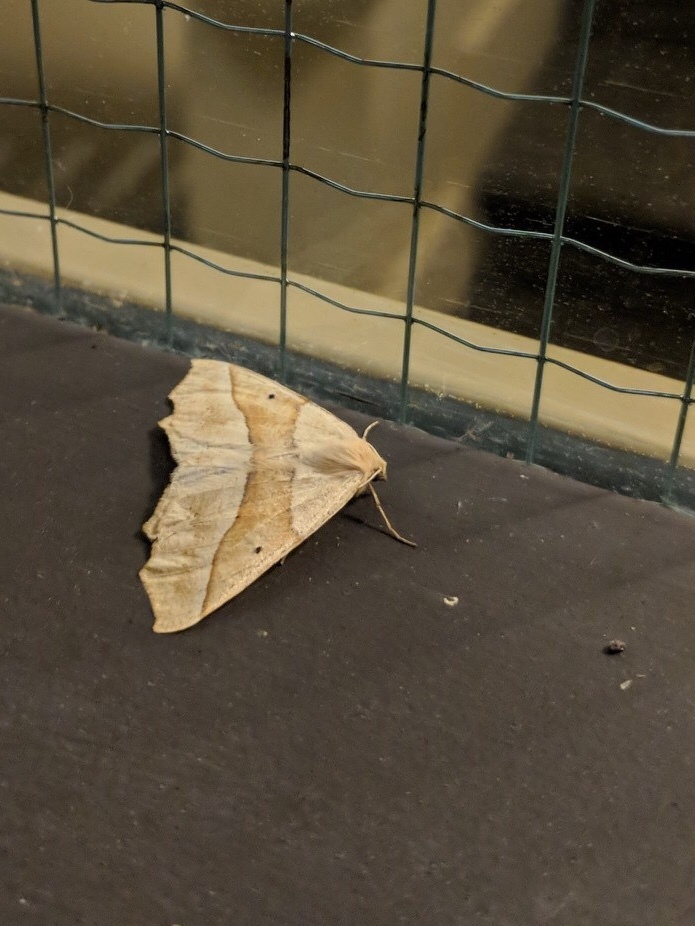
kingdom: Animalia
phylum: Arthropoda
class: Insecta
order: Lepidoptera
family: Geometridae
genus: Synaxis
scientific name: Synaxis jubararia
